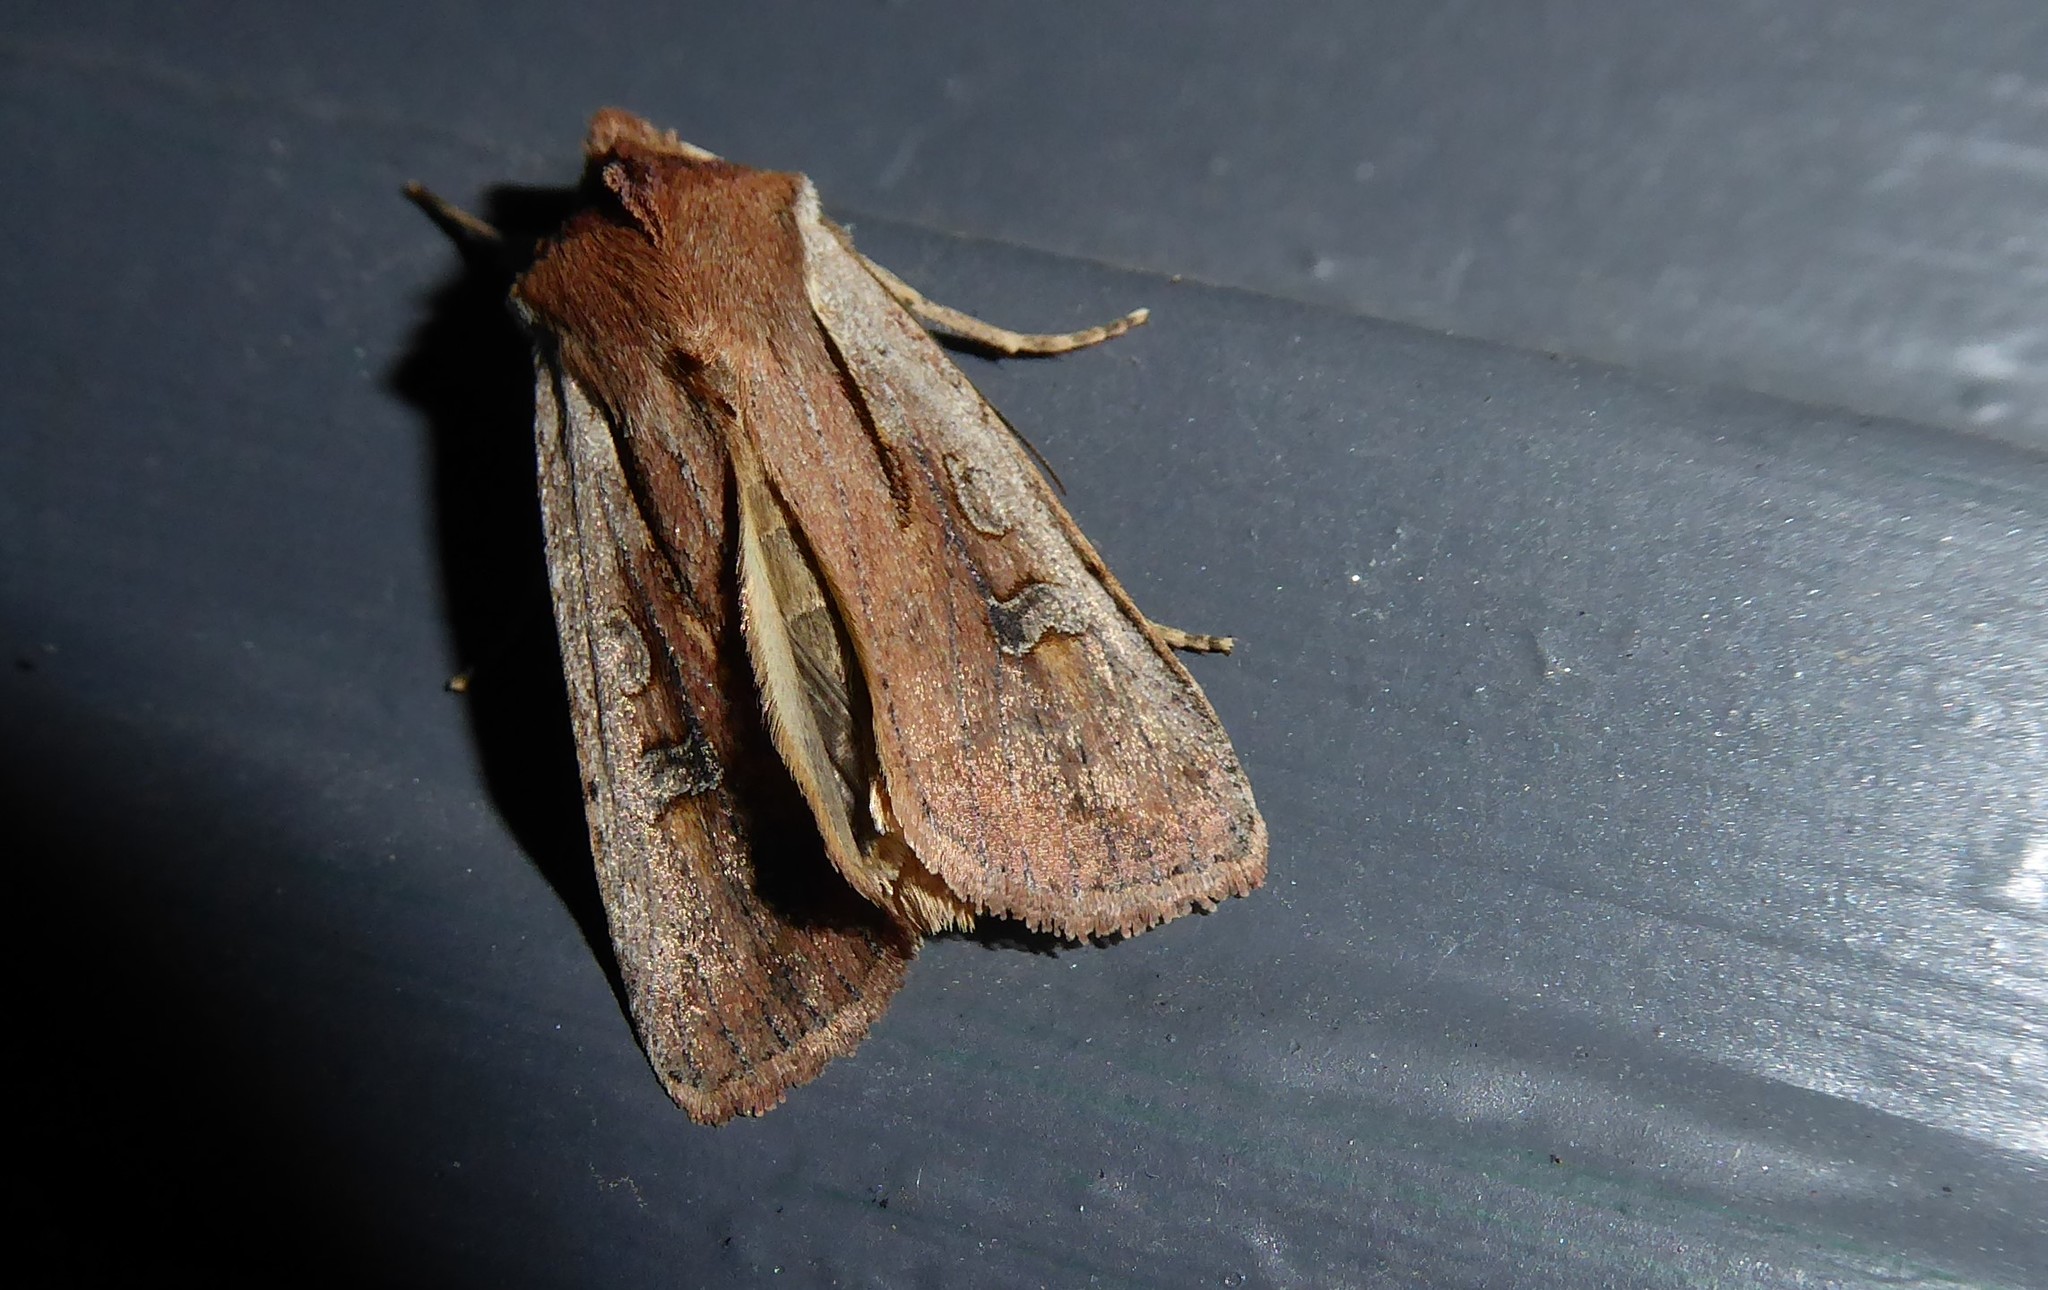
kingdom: Animalia
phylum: Arthropoda
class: Insecta
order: Lepidoptera
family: Noctuidae
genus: Ichneutica
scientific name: Ichneutica atristriga
